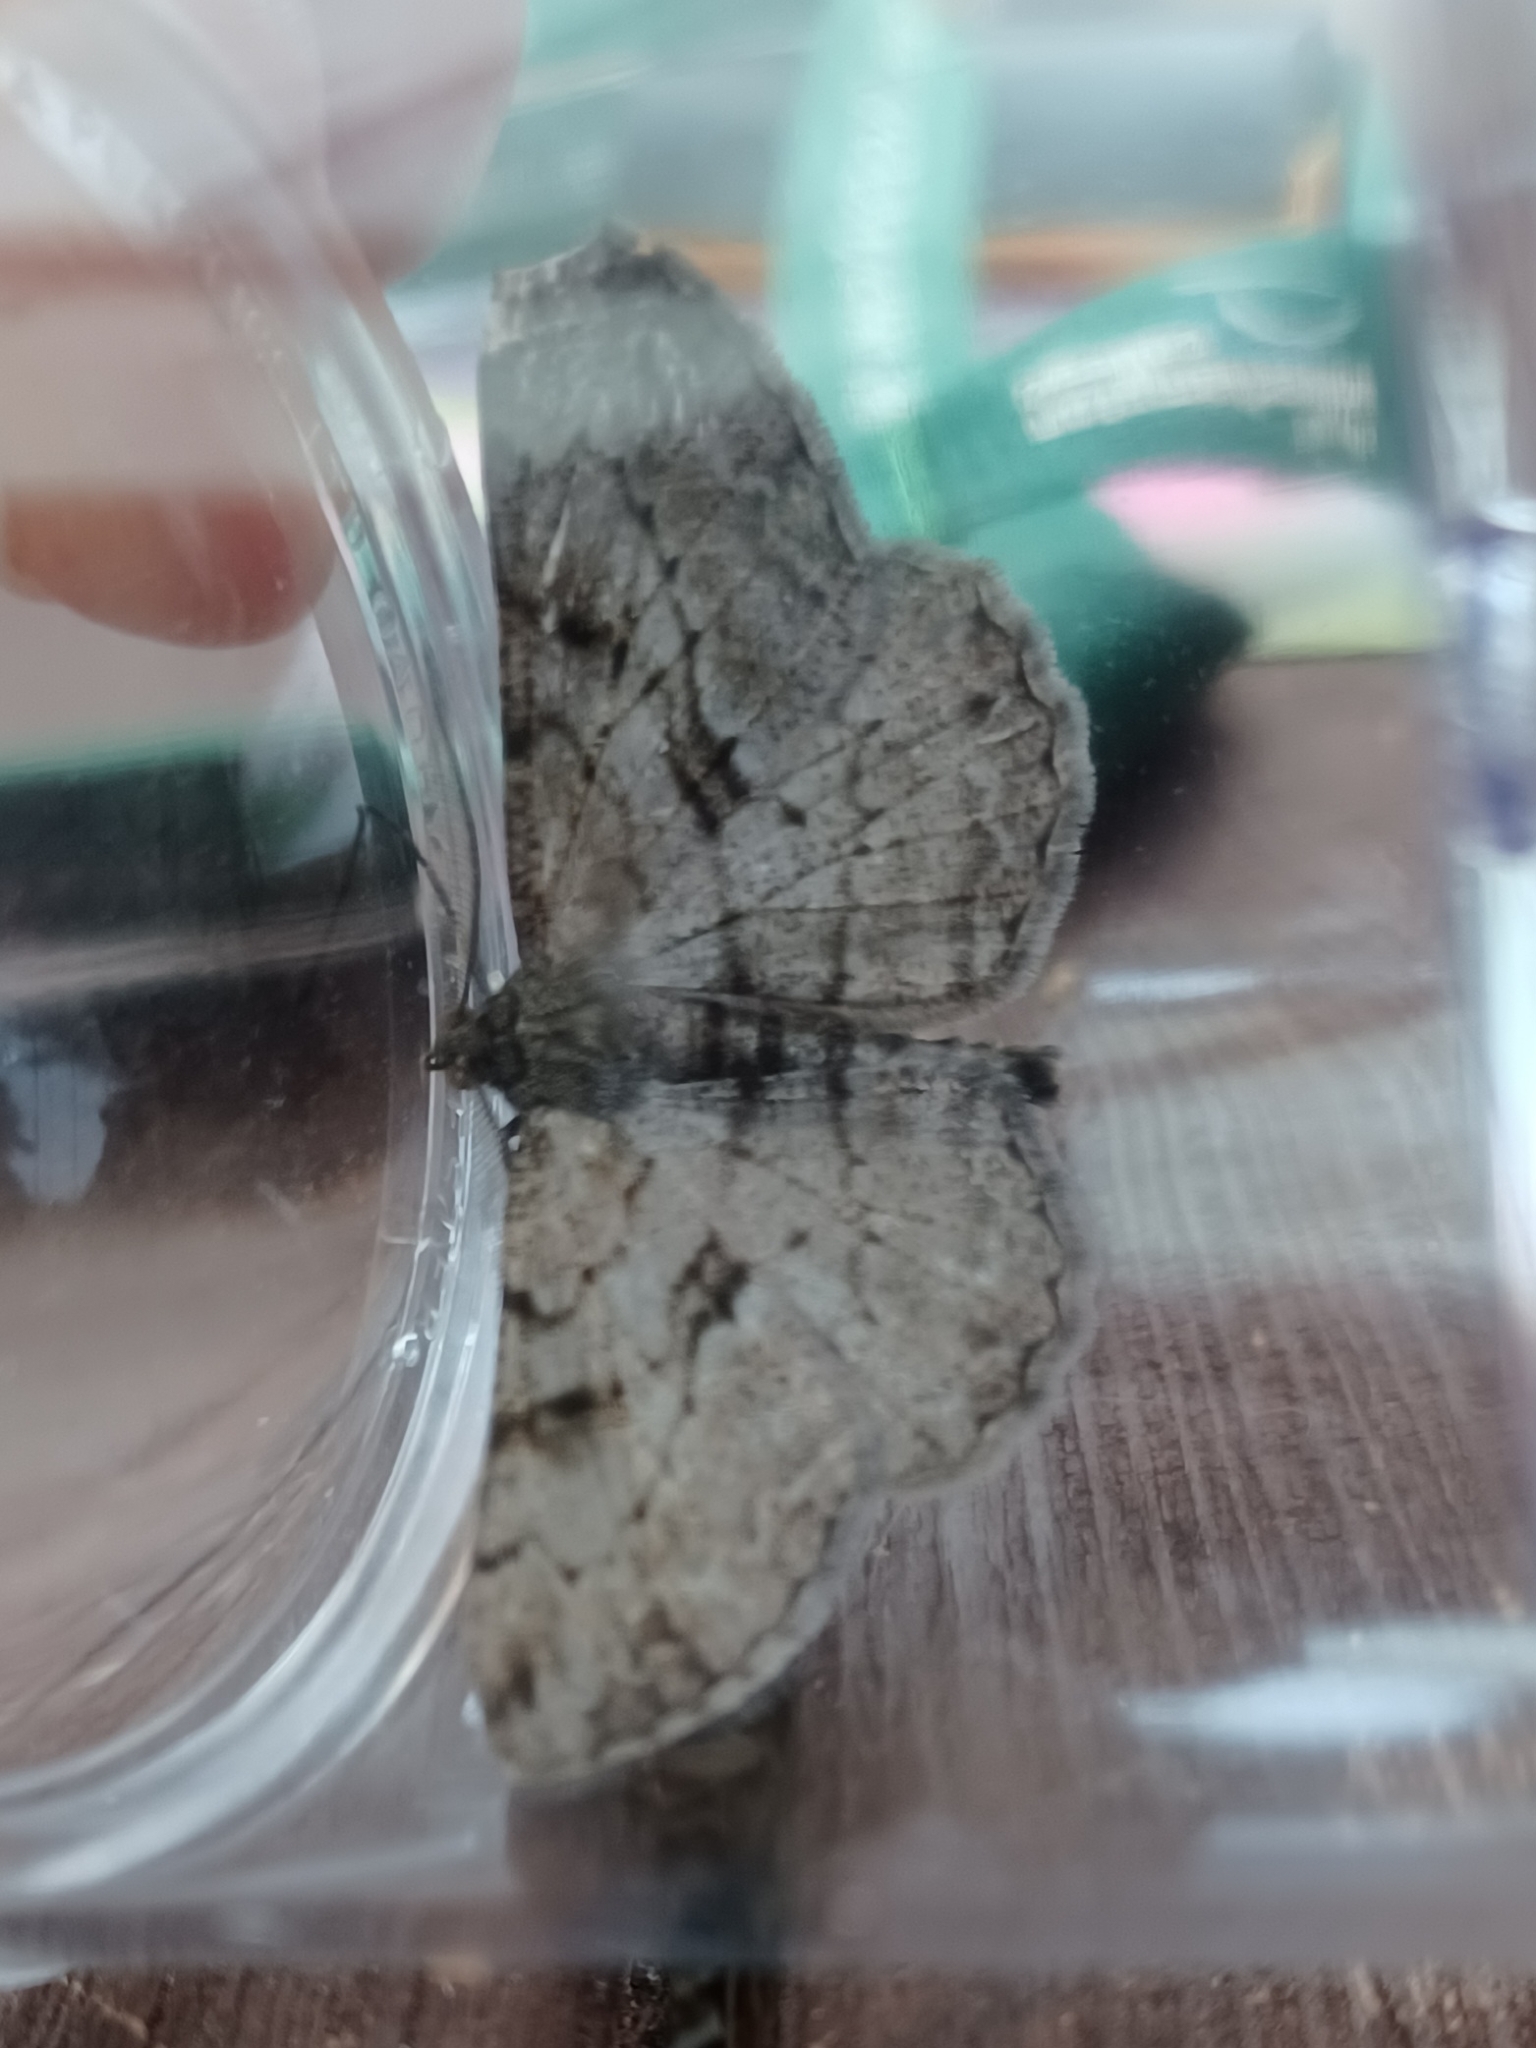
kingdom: Animalia
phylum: Arthropoda
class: Insecta
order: Lepidoptera
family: Geometridae
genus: Peribatodes
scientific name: Peribatodes rhomboidaria
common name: Willow beauty
